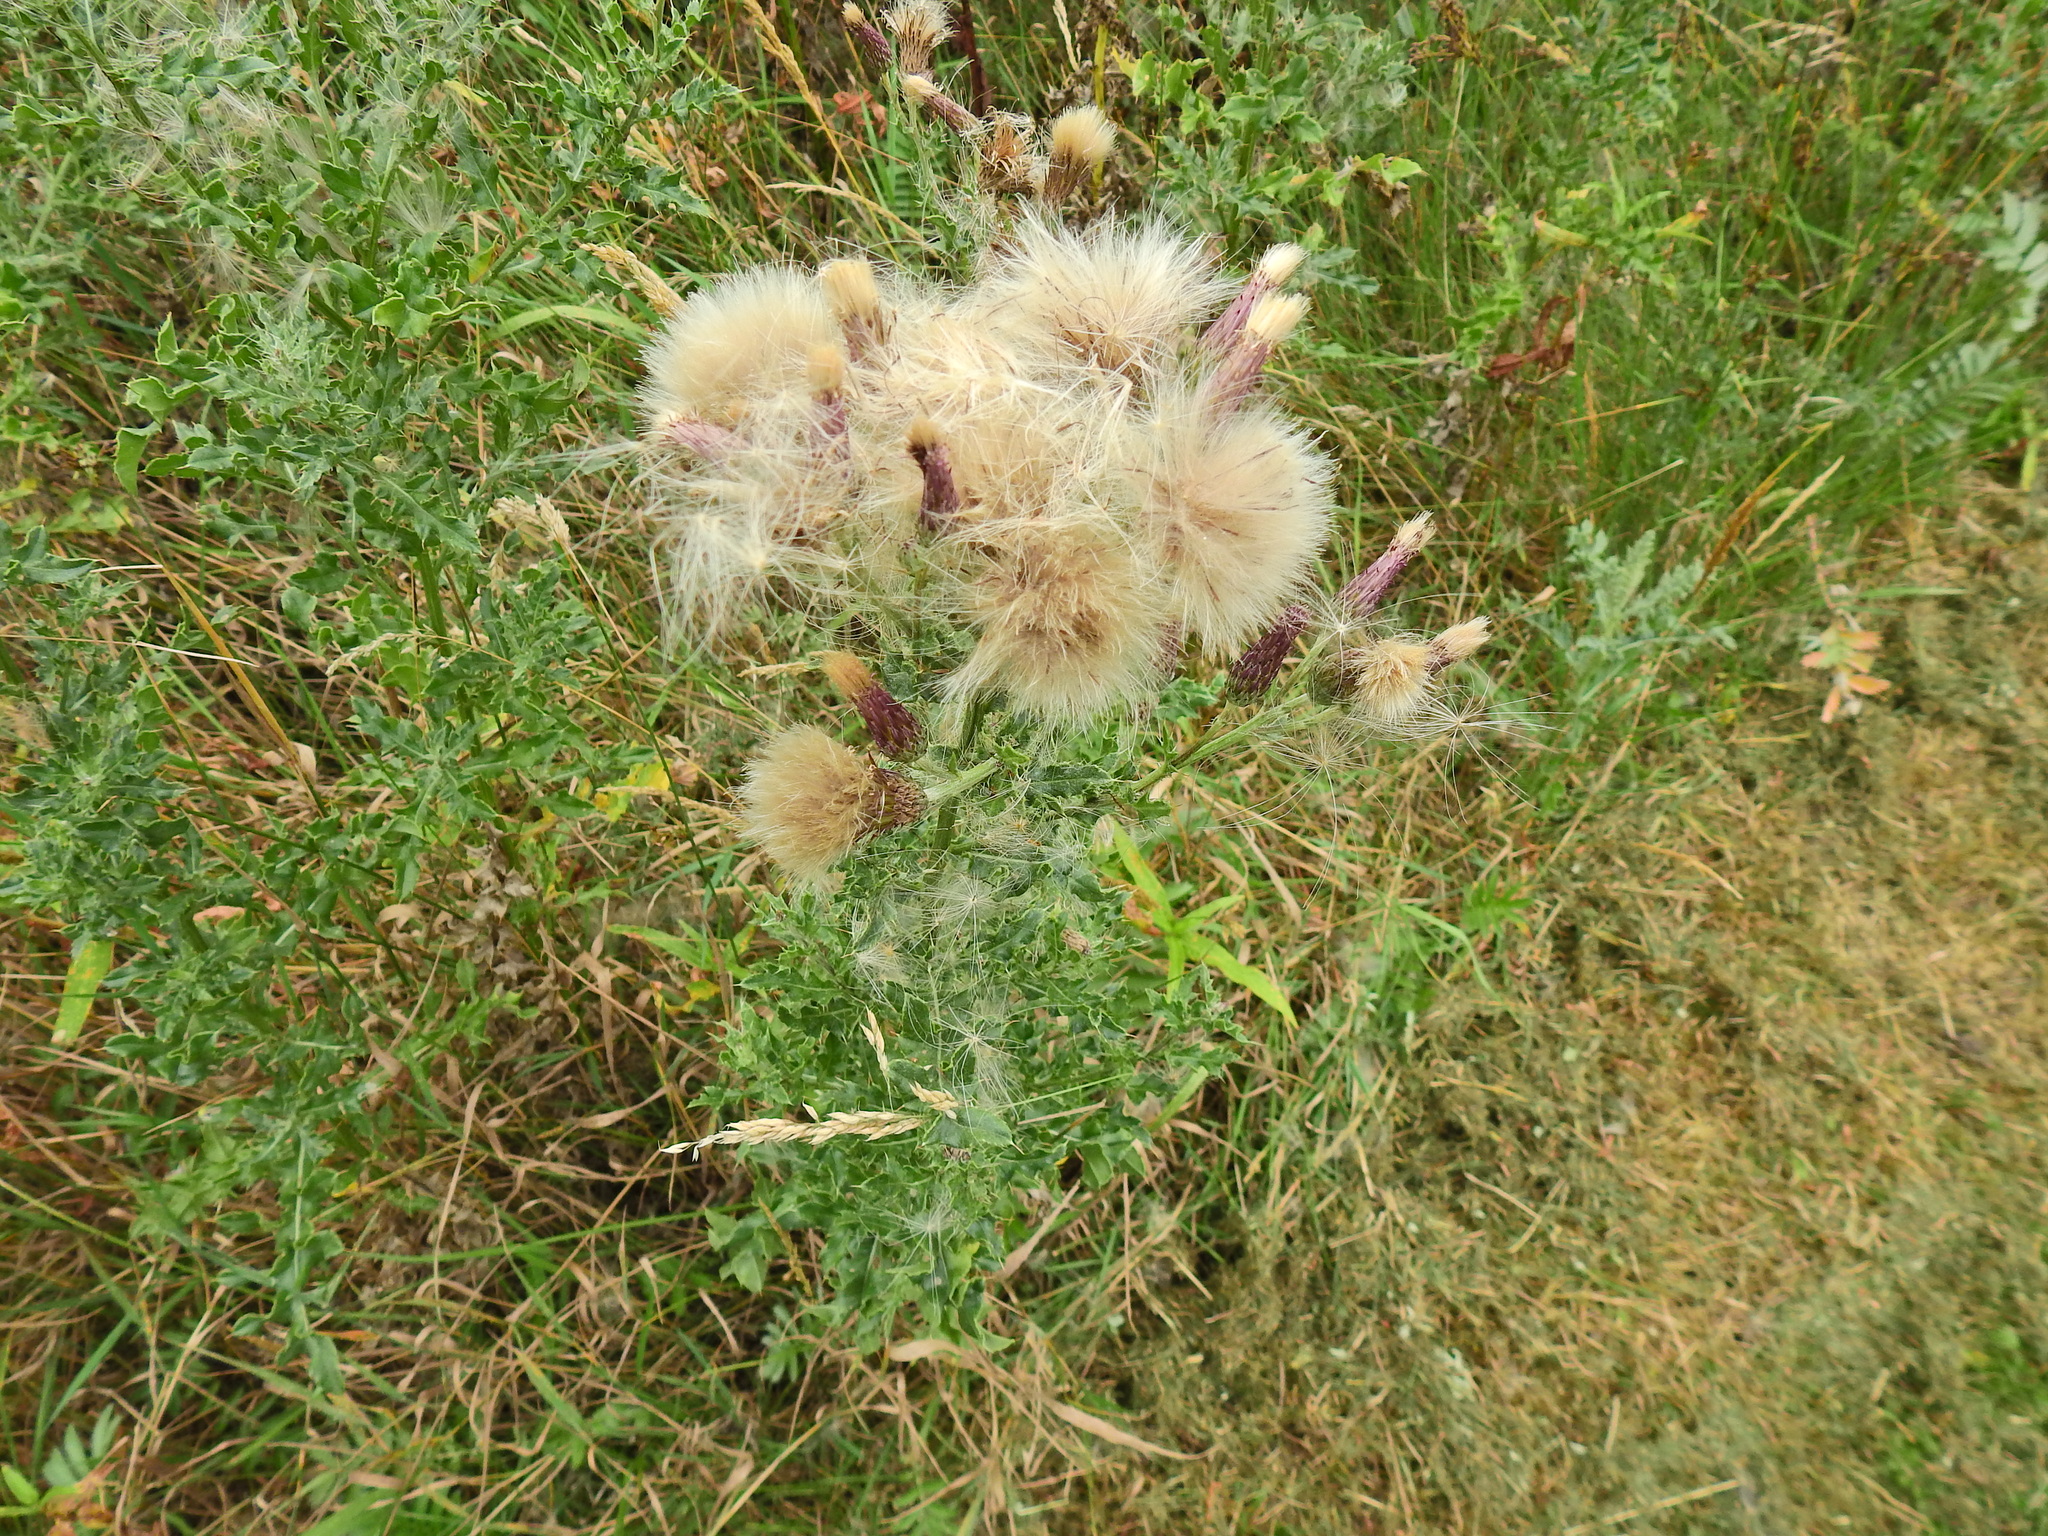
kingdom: Plantae
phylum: Tracheophyta
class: Magnoliopsida
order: Asterales
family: Asteraceae
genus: Cirsium
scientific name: Cirsium arvense
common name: Creeping thistle
